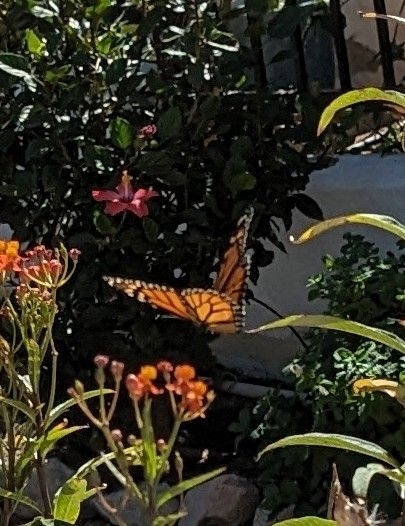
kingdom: Animalia
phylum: Arthropoda
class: Insecta
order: Lepidoptera
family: Nymphalidae
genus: Danaus
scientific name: Danaus plexippus
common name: Monarch
